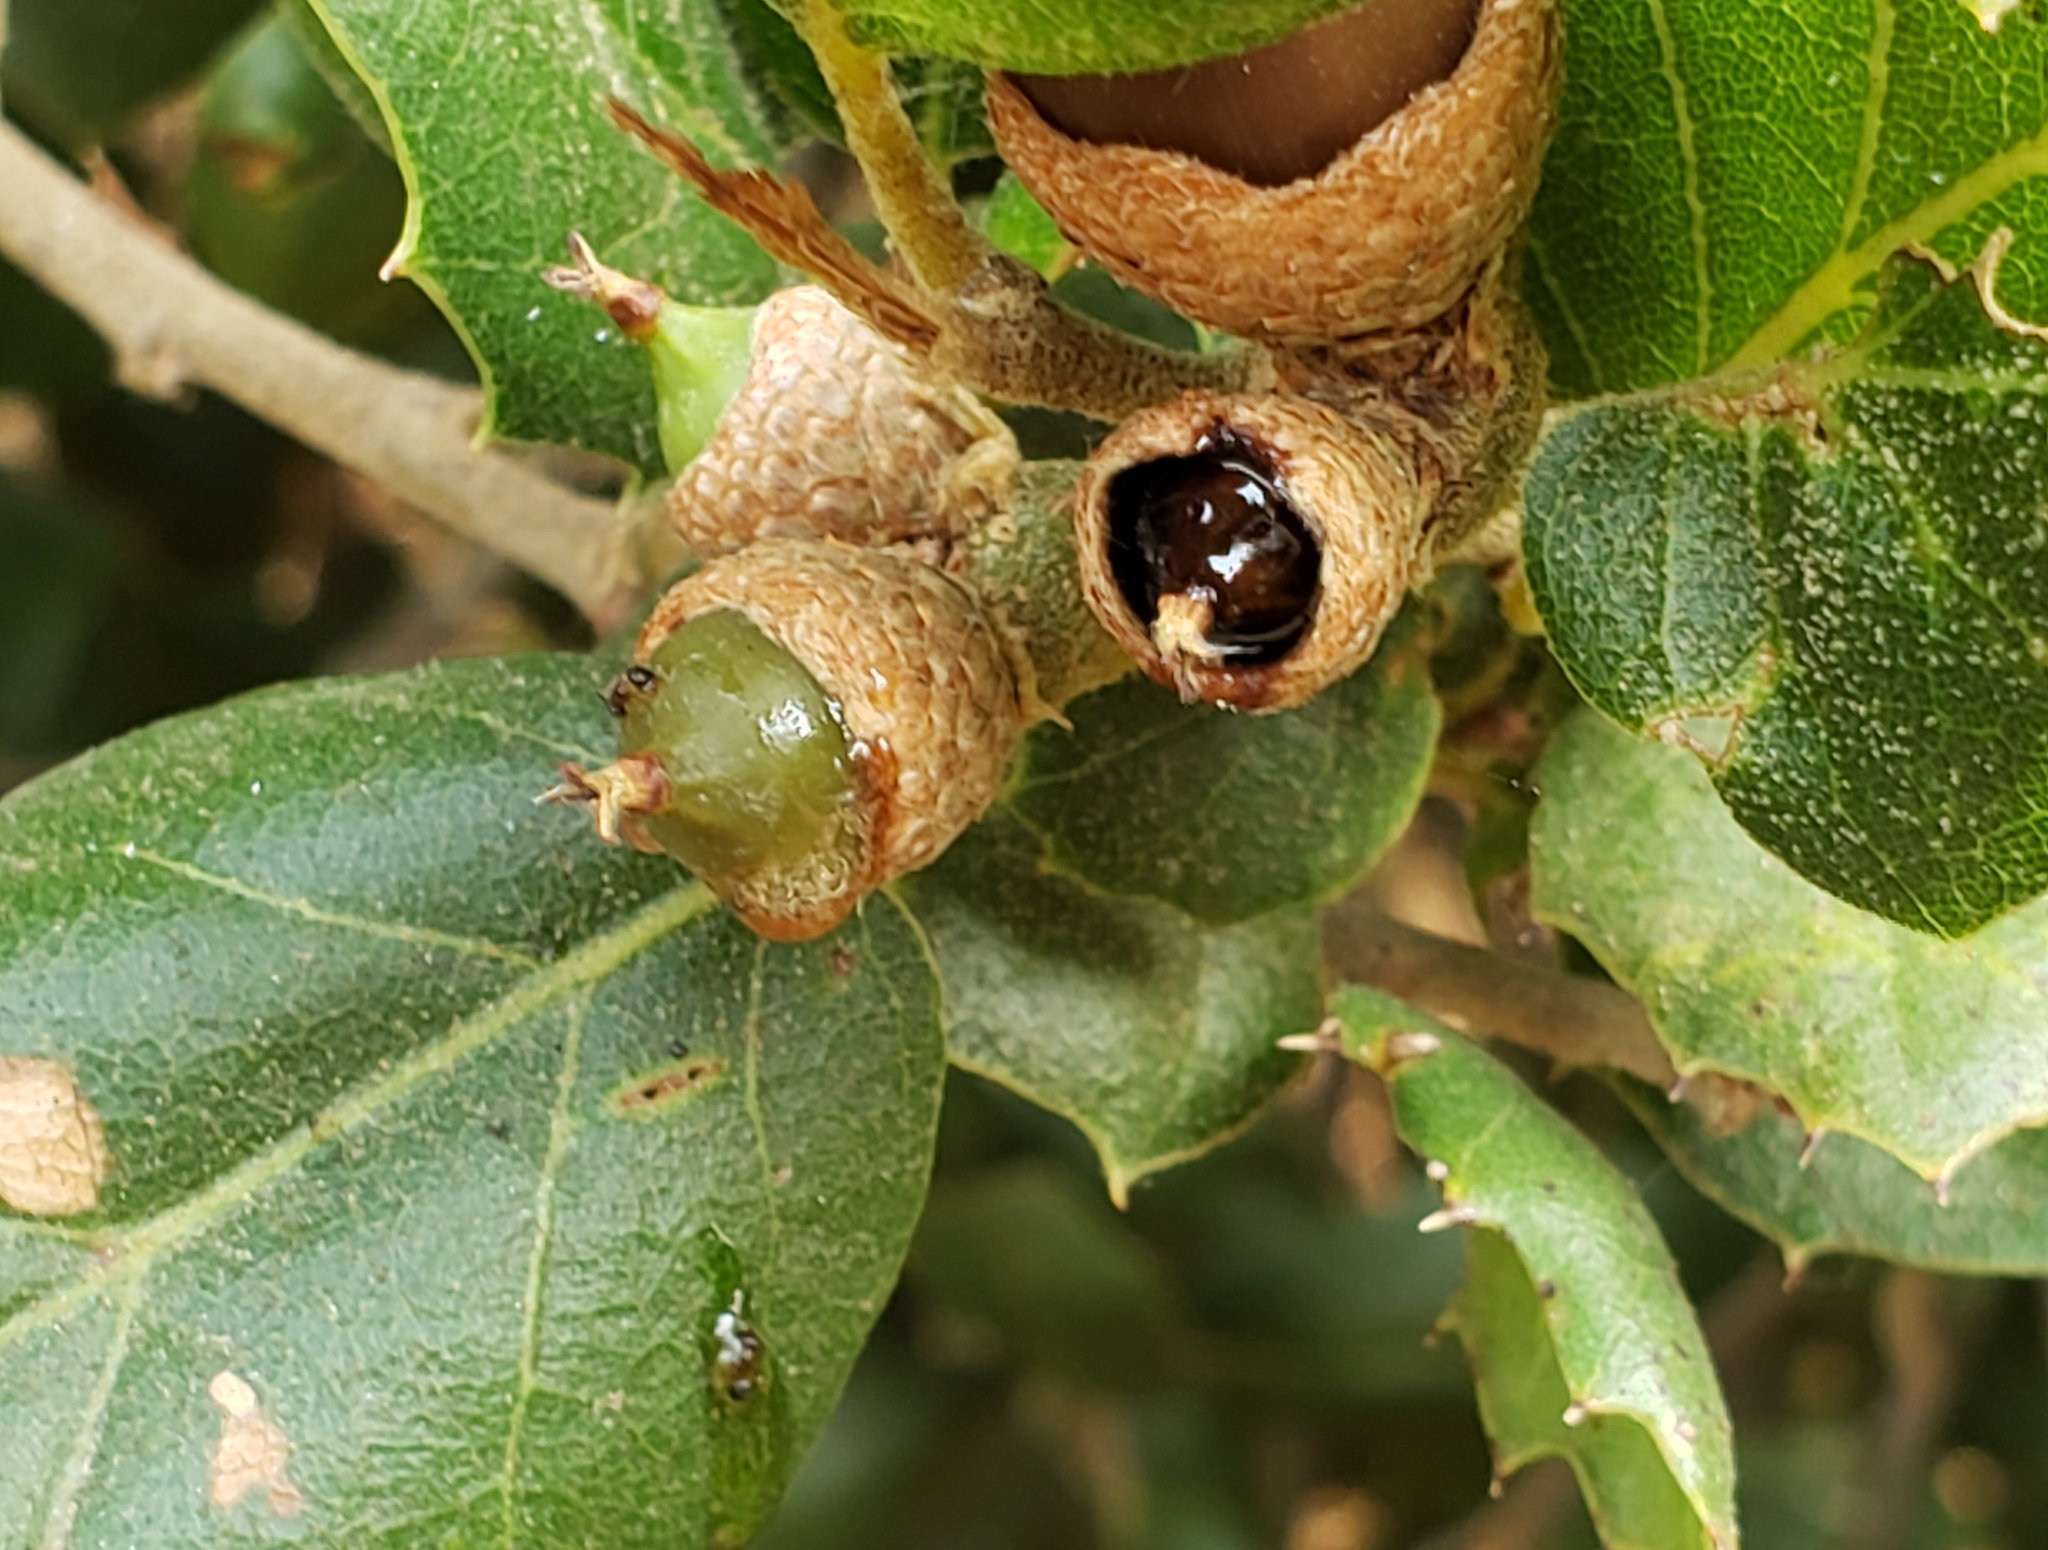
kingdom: Bacteria
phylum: Proteobacteria
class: Gammaproteobacteria
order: Enterobacterales
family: Enterobacteriaceae
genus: Lonsdalea
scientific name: Lonsdalea quercina
